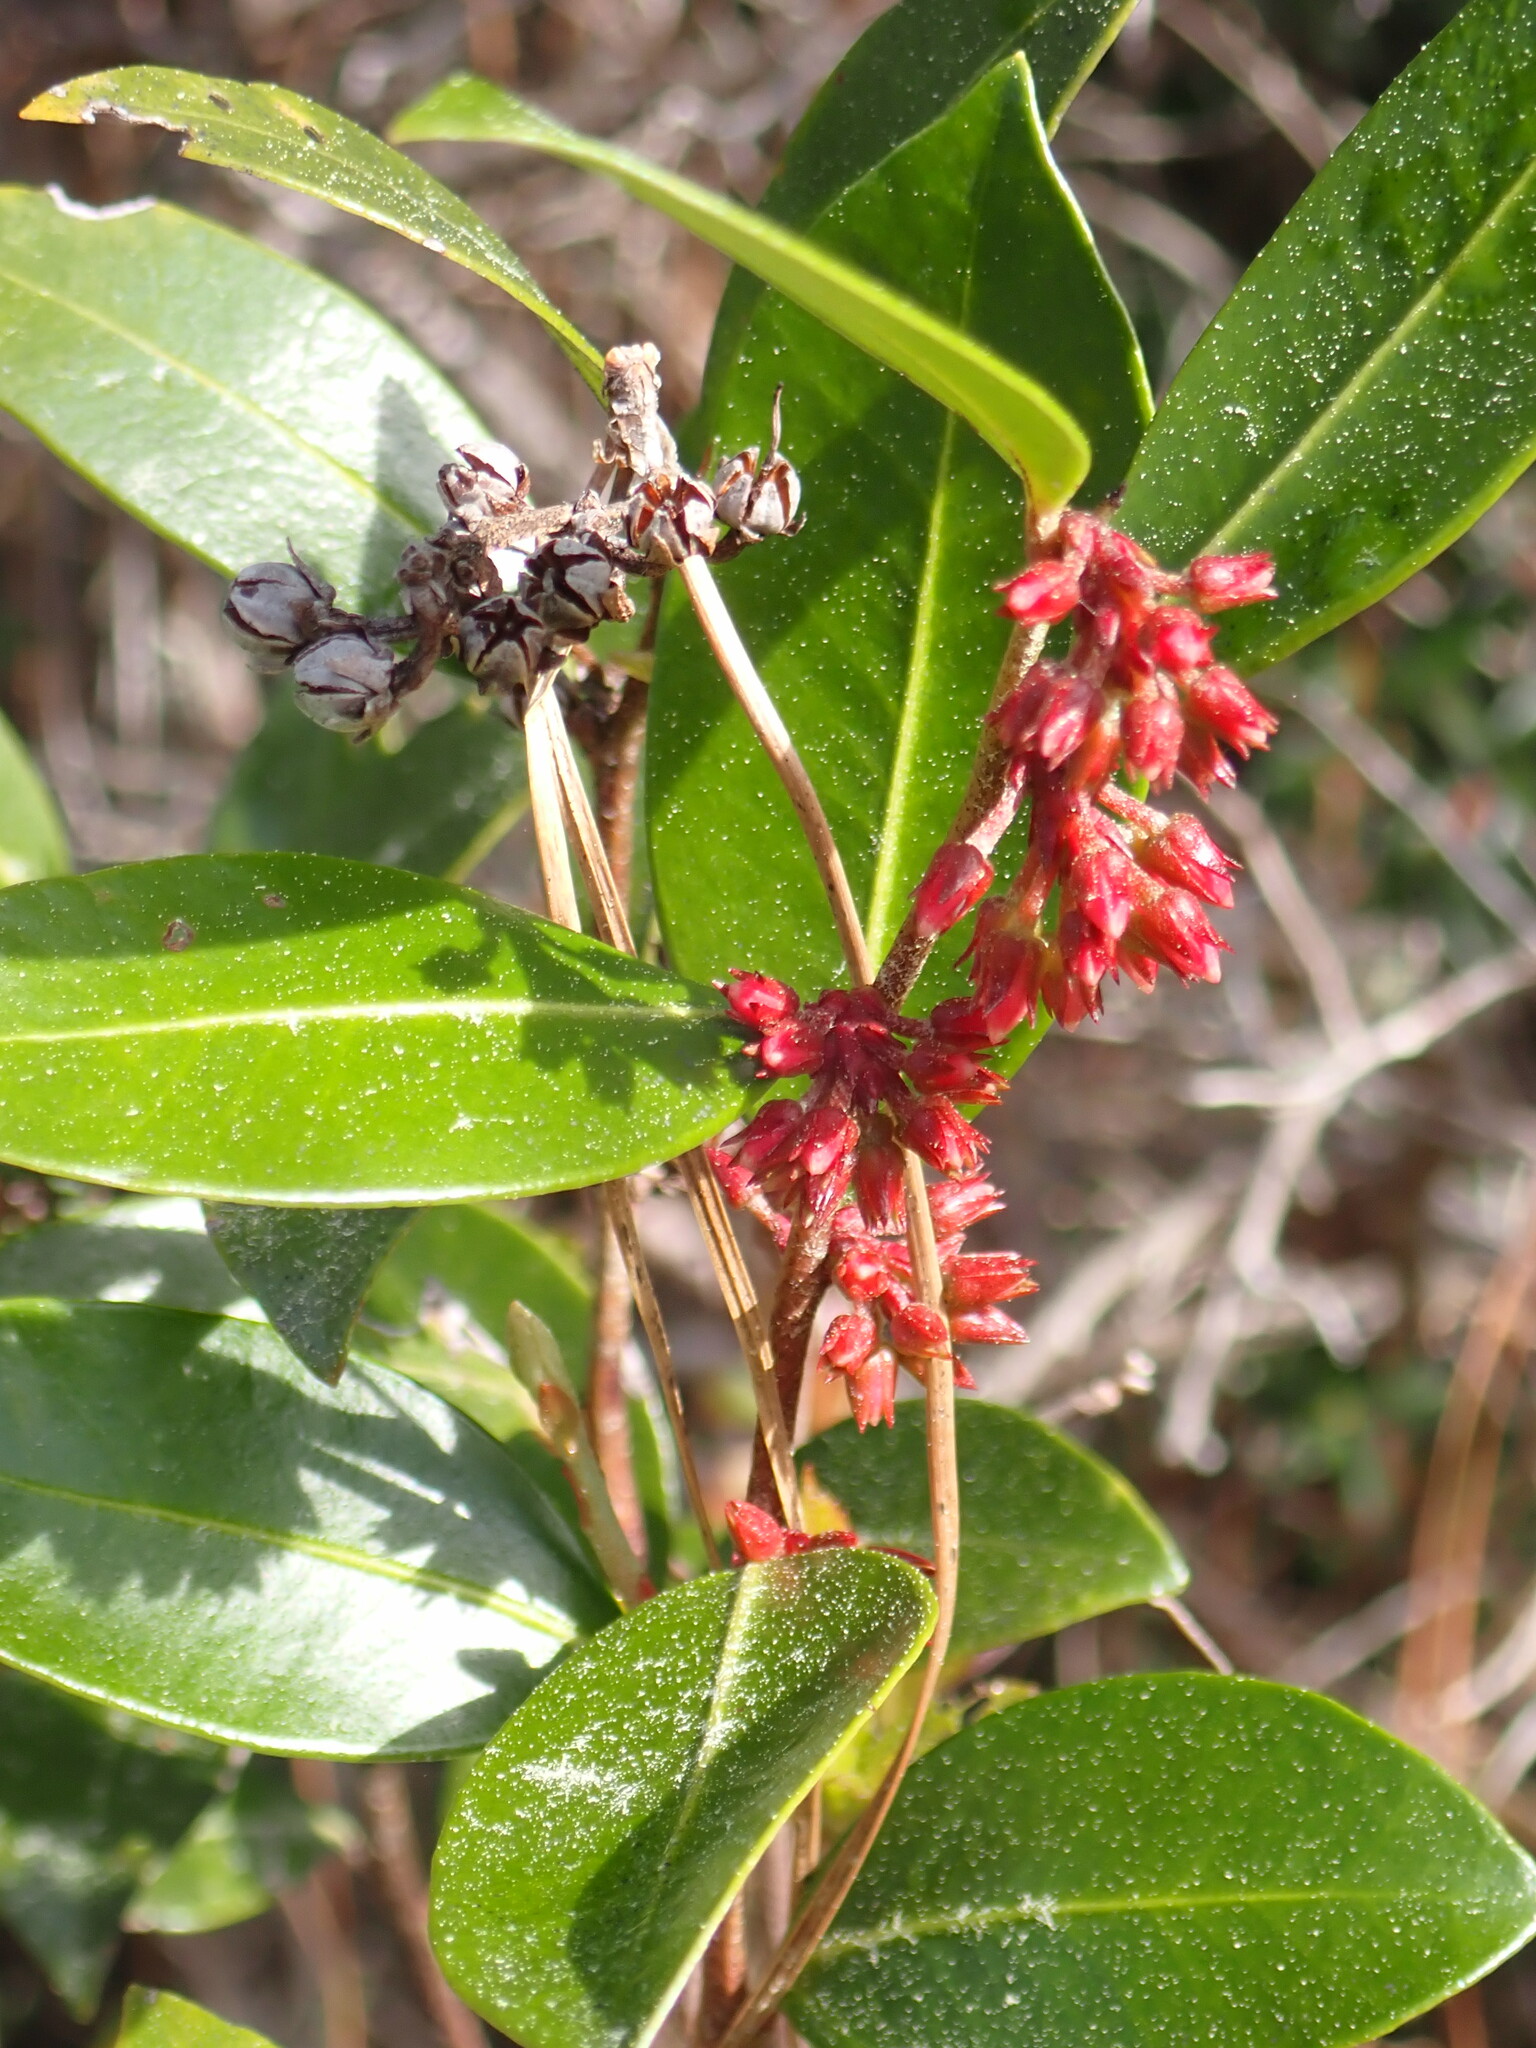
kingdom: Plantae
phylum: Tracheophyta
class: Magnoliopsida
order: Ericales
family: Ericaceae
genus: Lyonia
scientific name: Lyonia lucida
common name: Fetterbush
